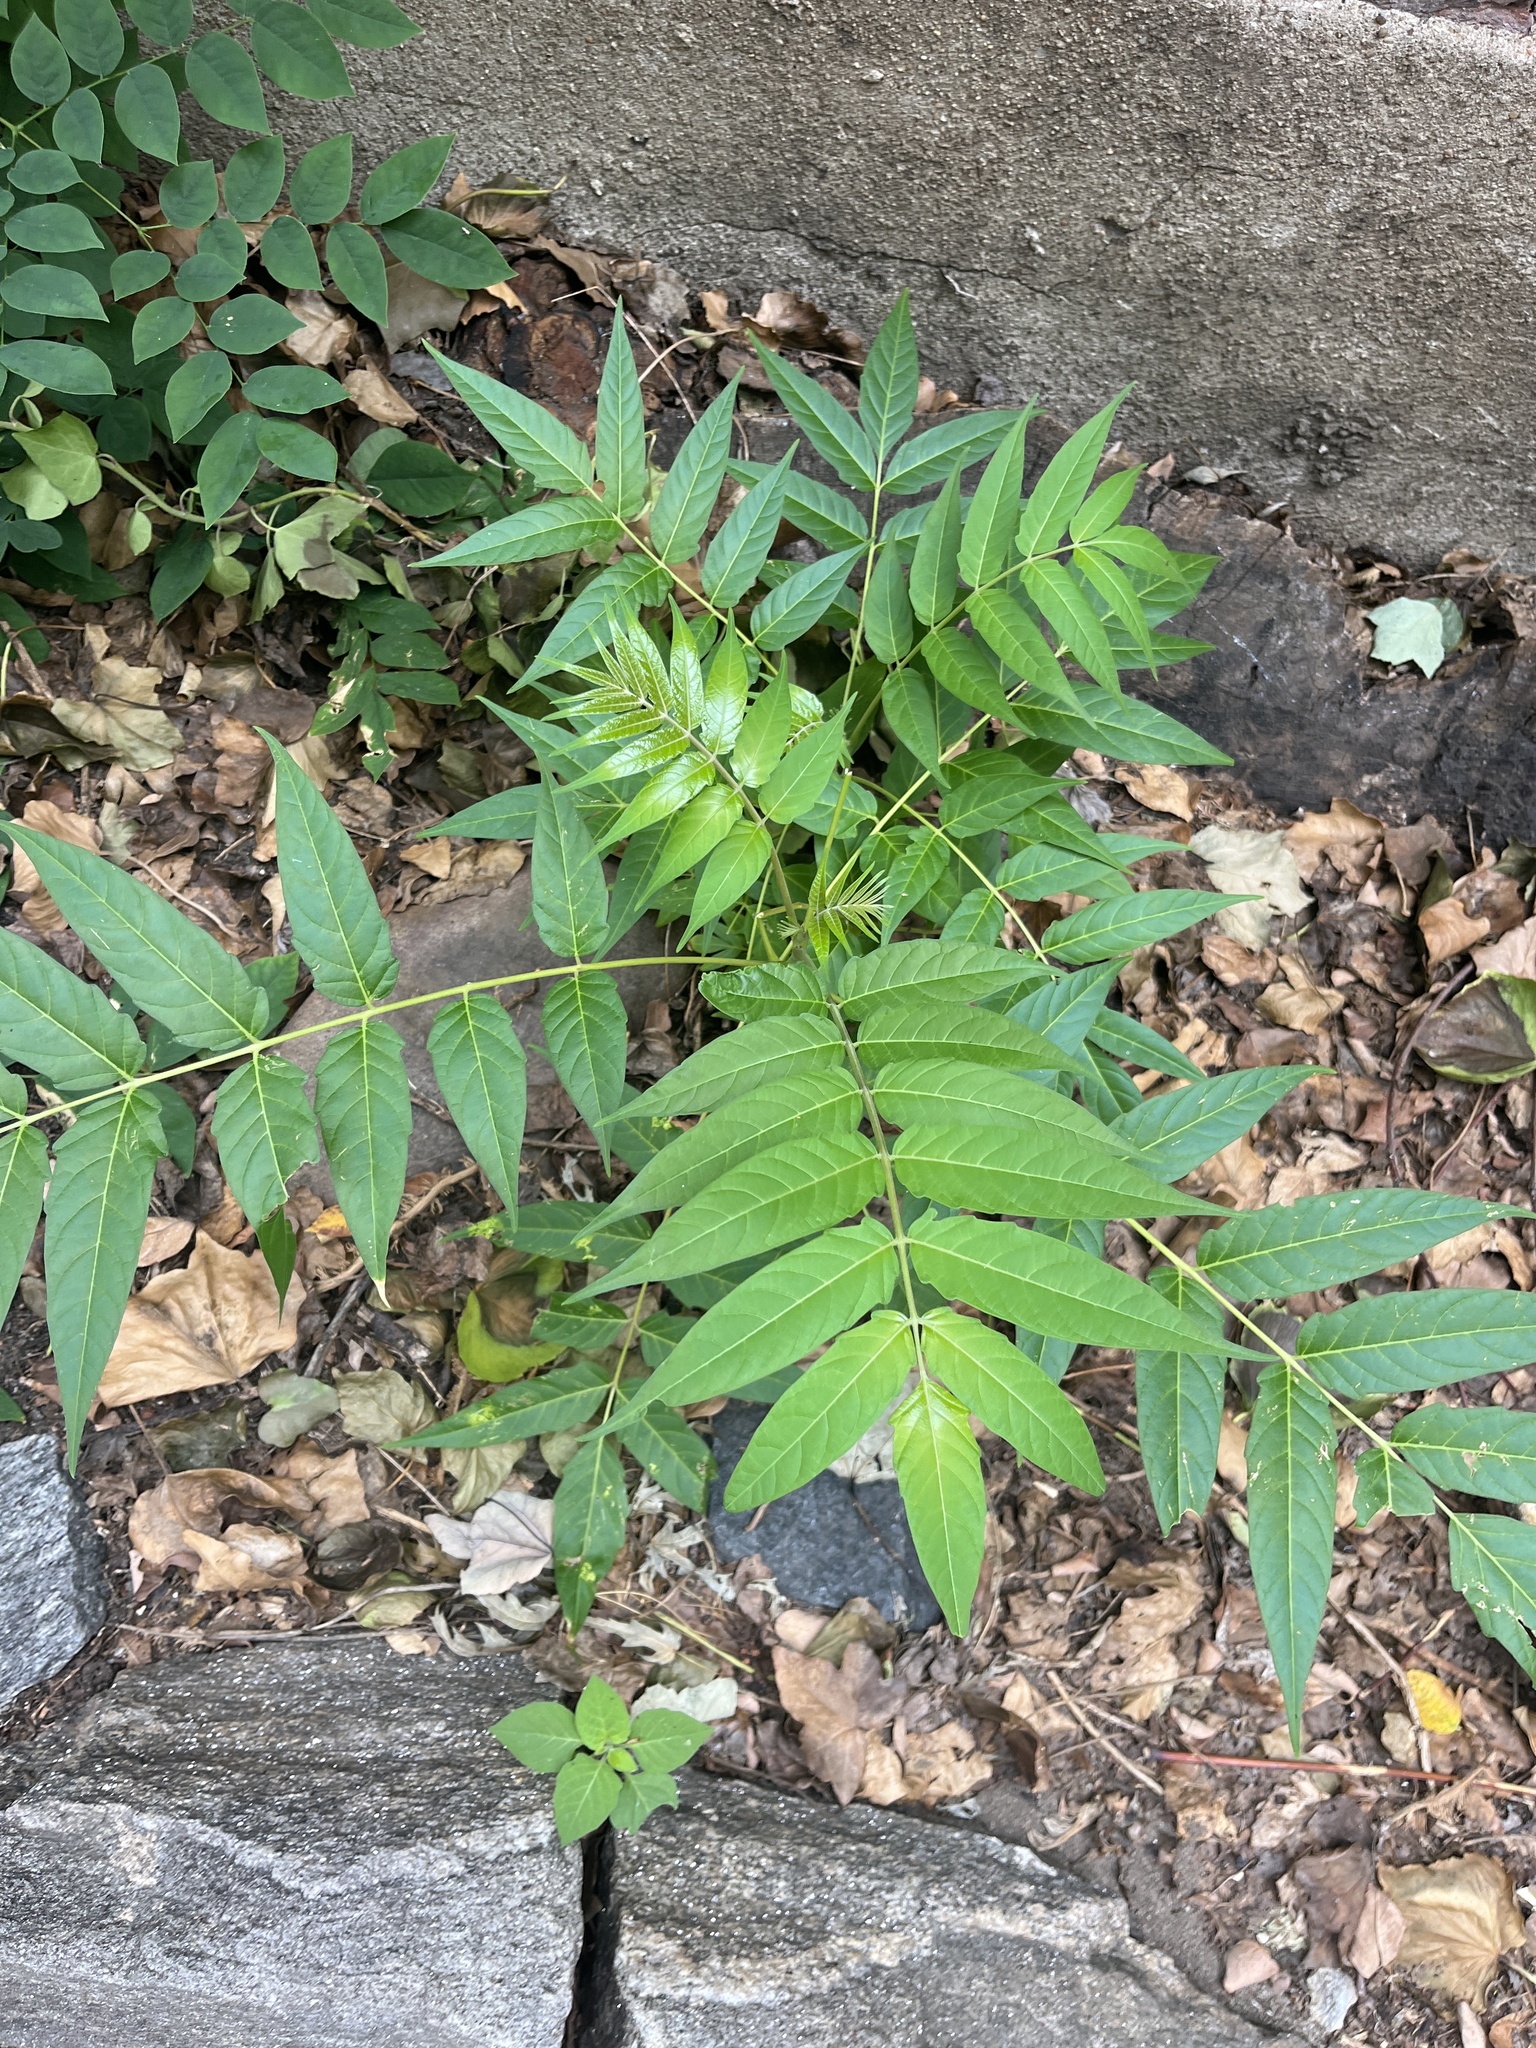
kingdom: Plantae
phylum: Tracheophyta
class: Magnoliopsida
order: Sapindales
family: Simaroubaceae
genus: Ailanthus
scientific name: Ailanthus altissima
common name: Tree-of-heaven
